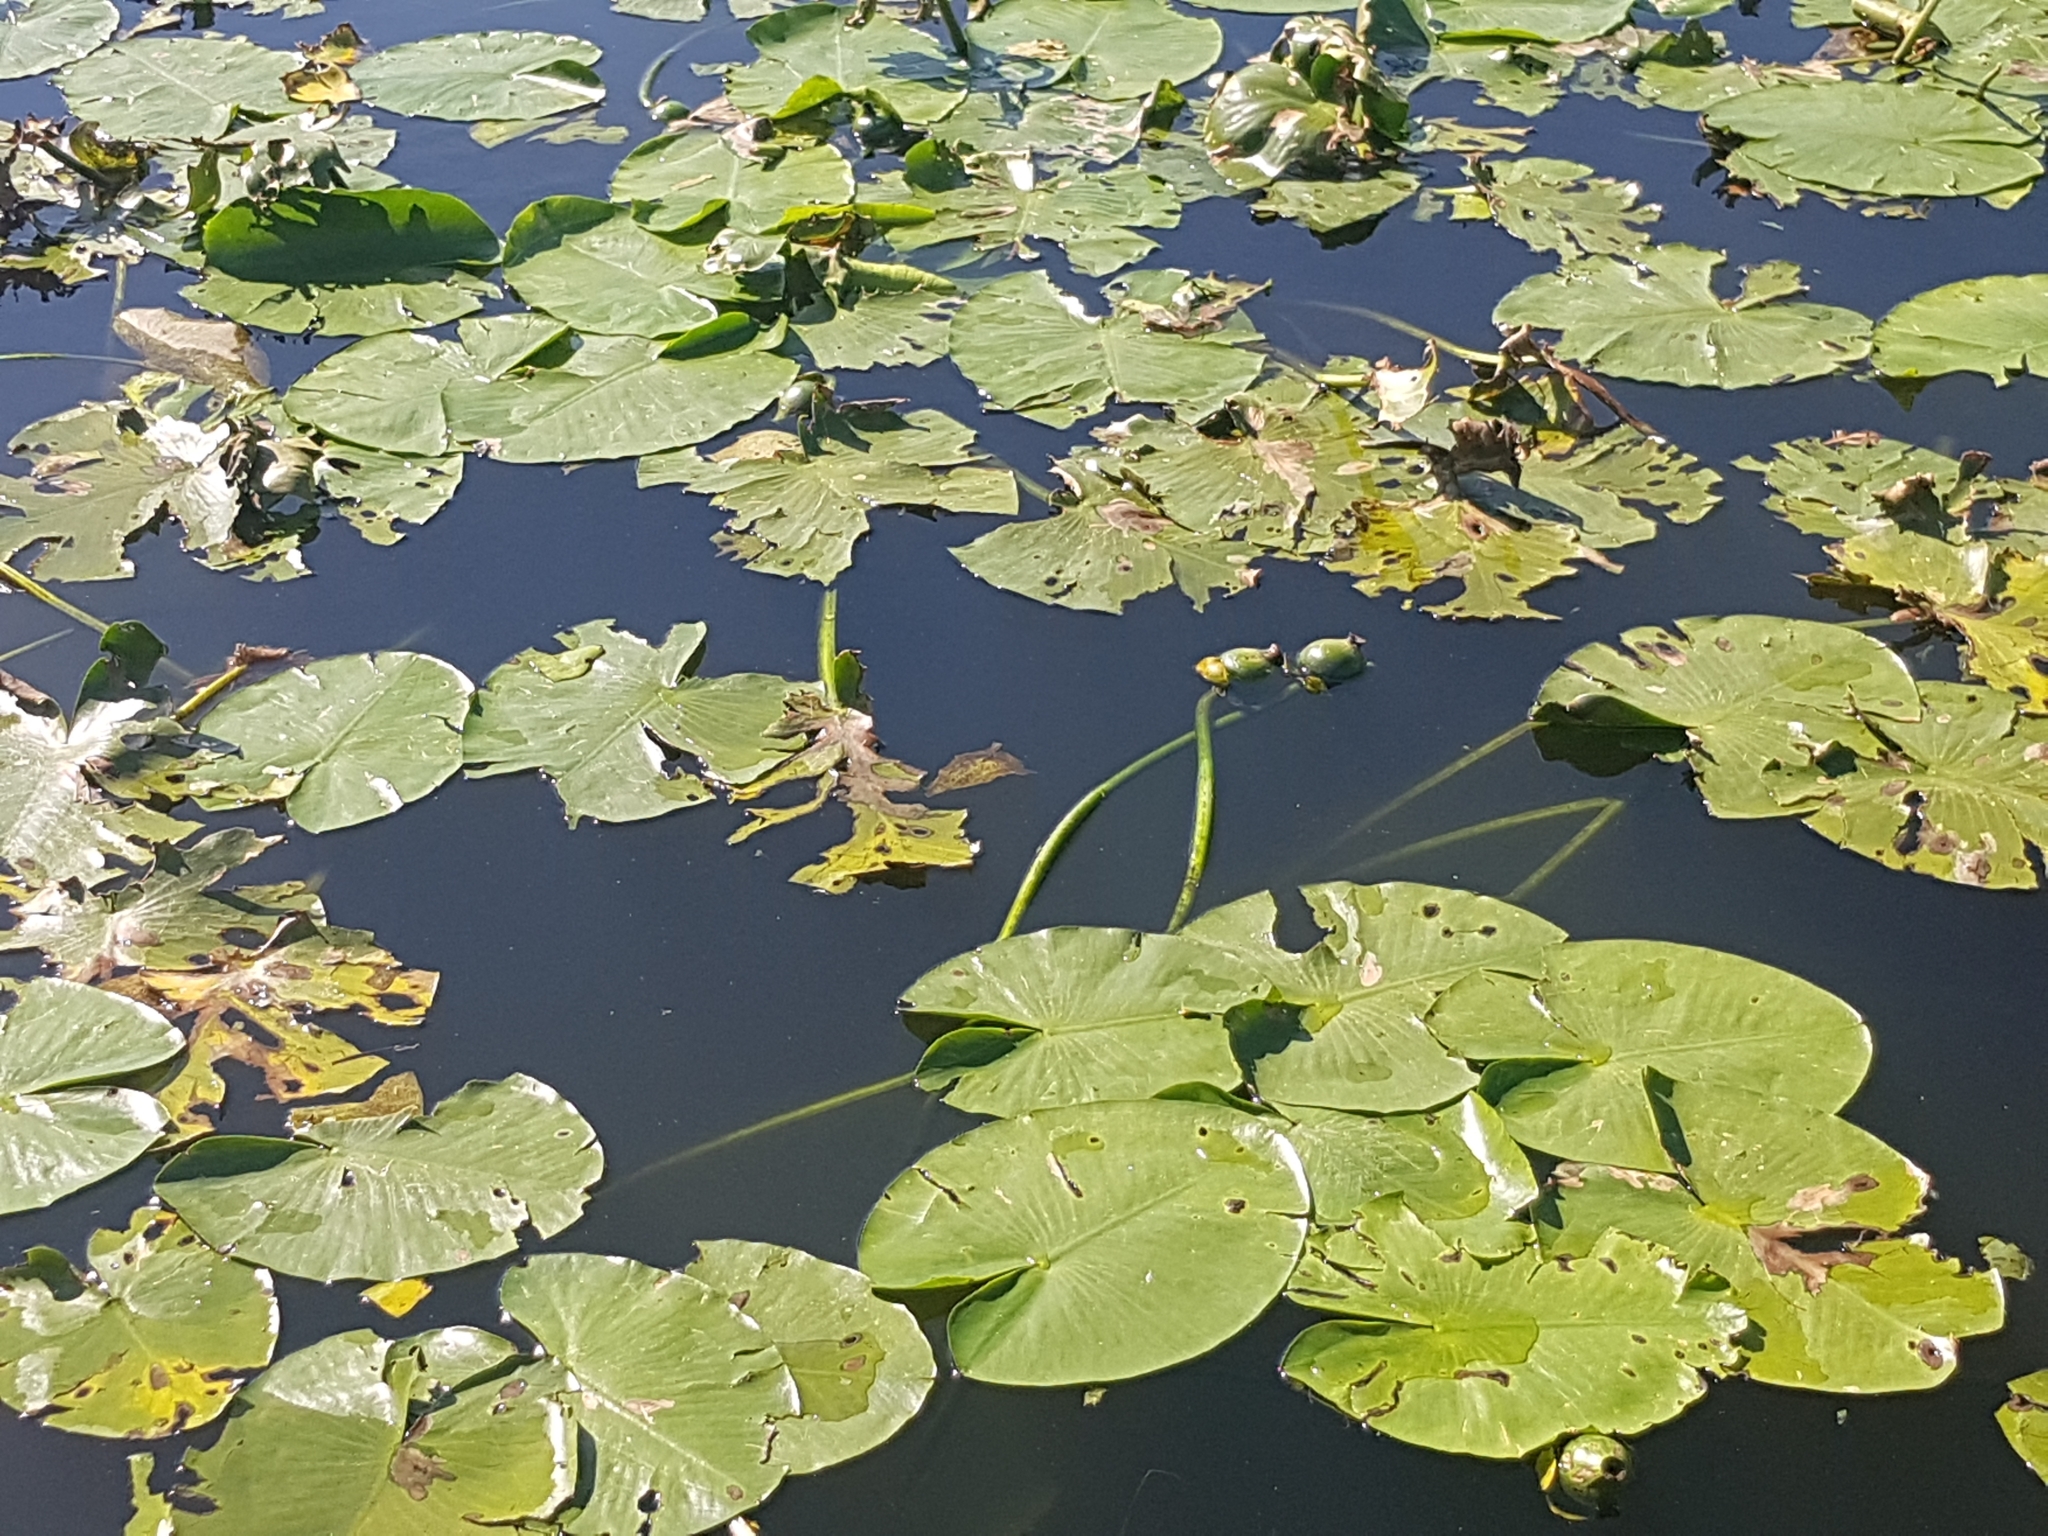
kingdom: Plantae
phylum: Tracheophyta
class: Magnoliopsida
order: Nymphaeales
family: Nymphaeaceae
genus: Nuphar
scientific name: Nuphar lutea
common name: Yellow water-lily
